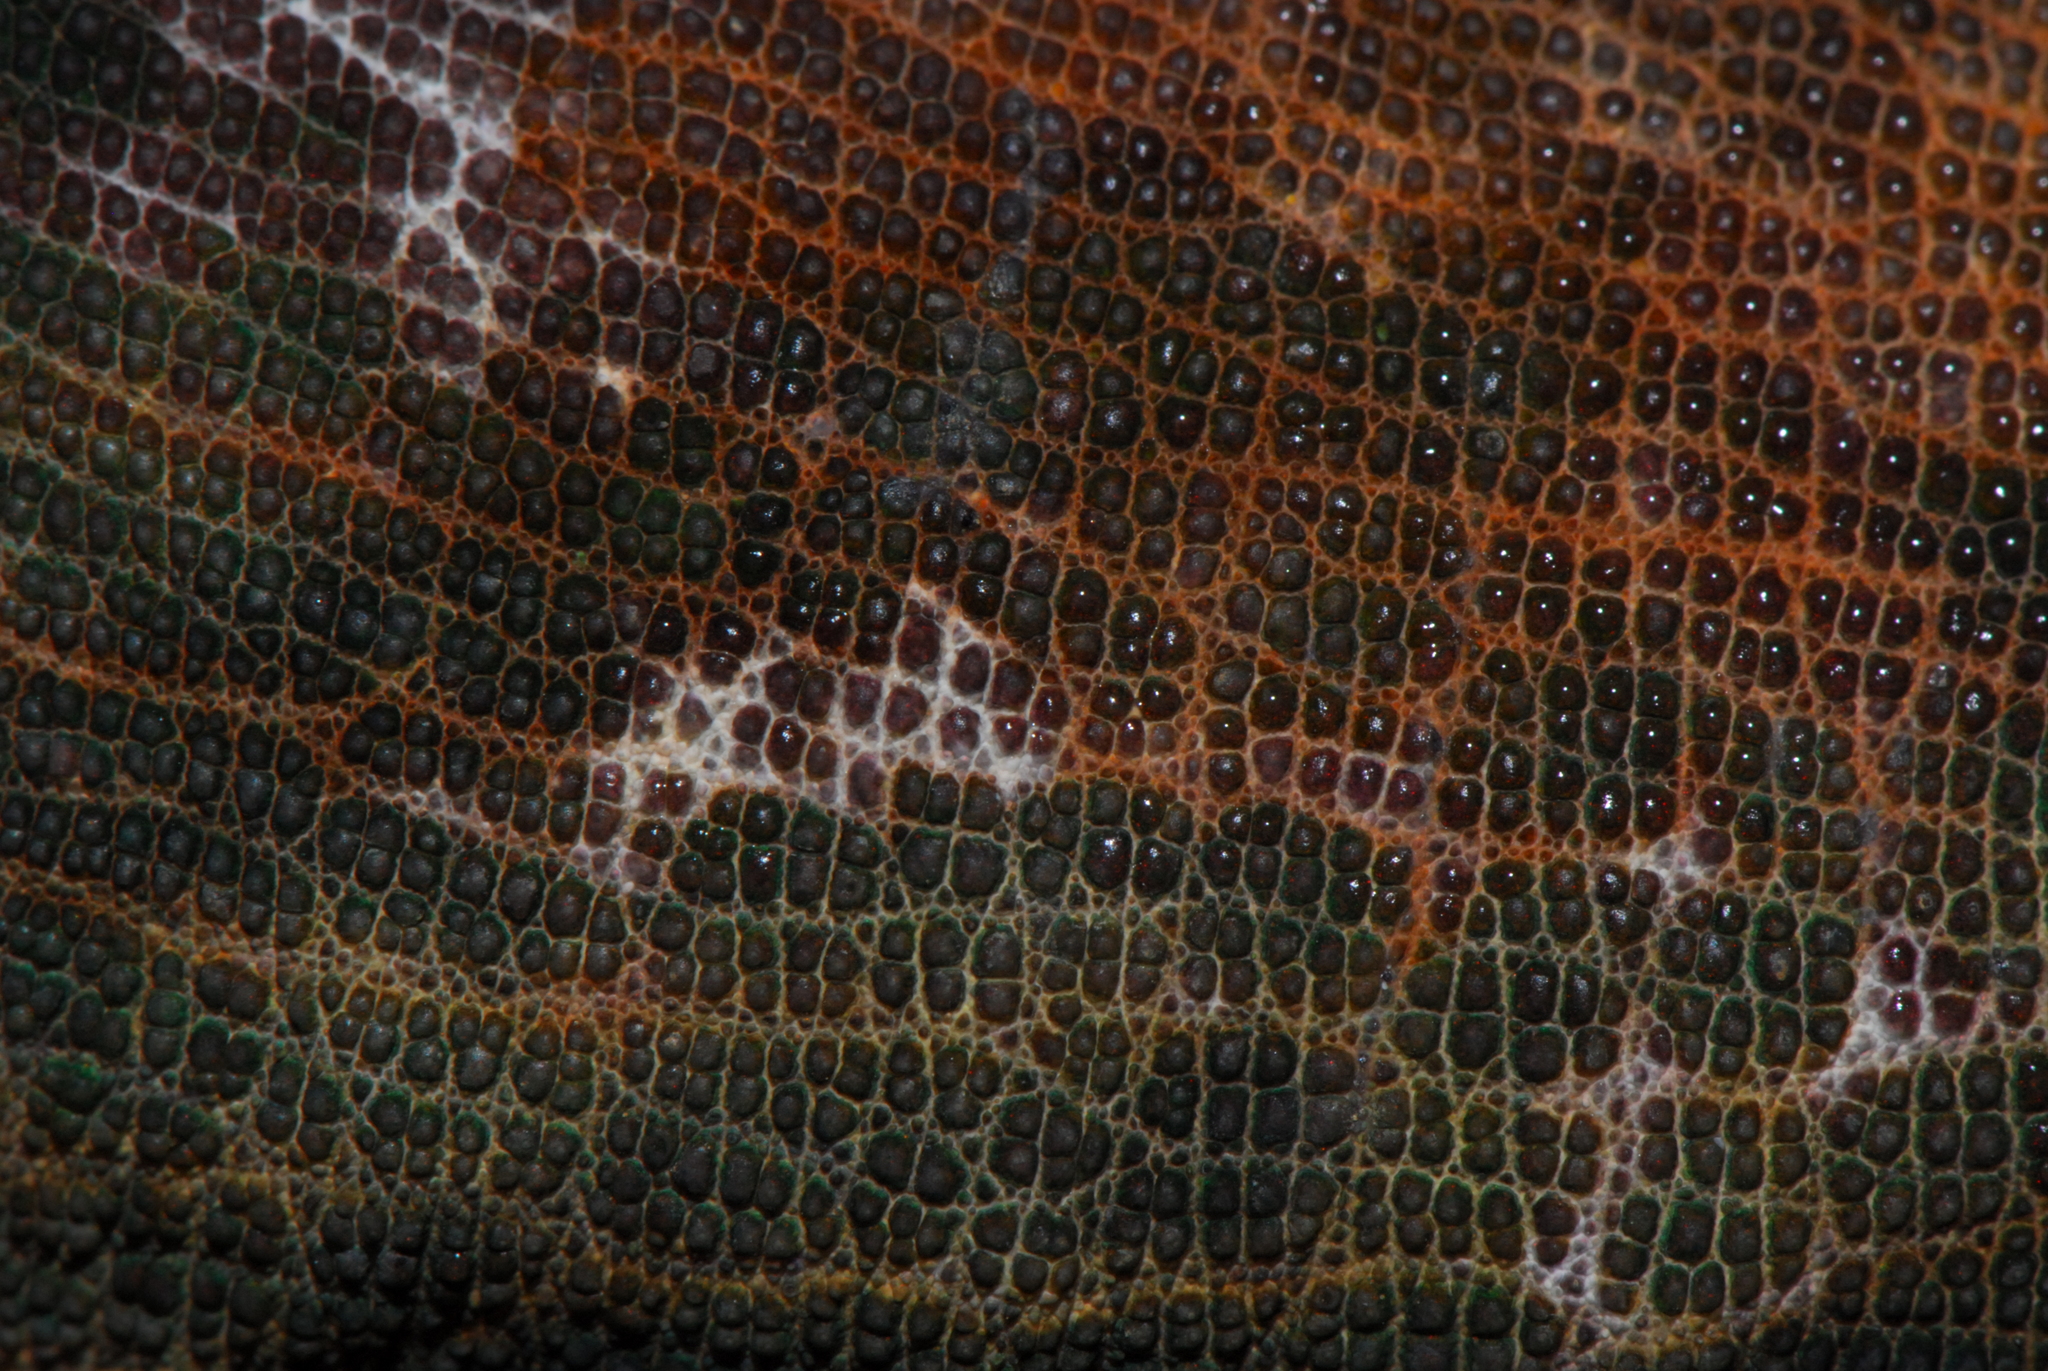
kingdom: Animalia
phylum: Chordata
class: Squamata
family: Chamaeleonidae
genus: Calumma
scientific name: Calumma parsonii
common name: Parson's chameleon
